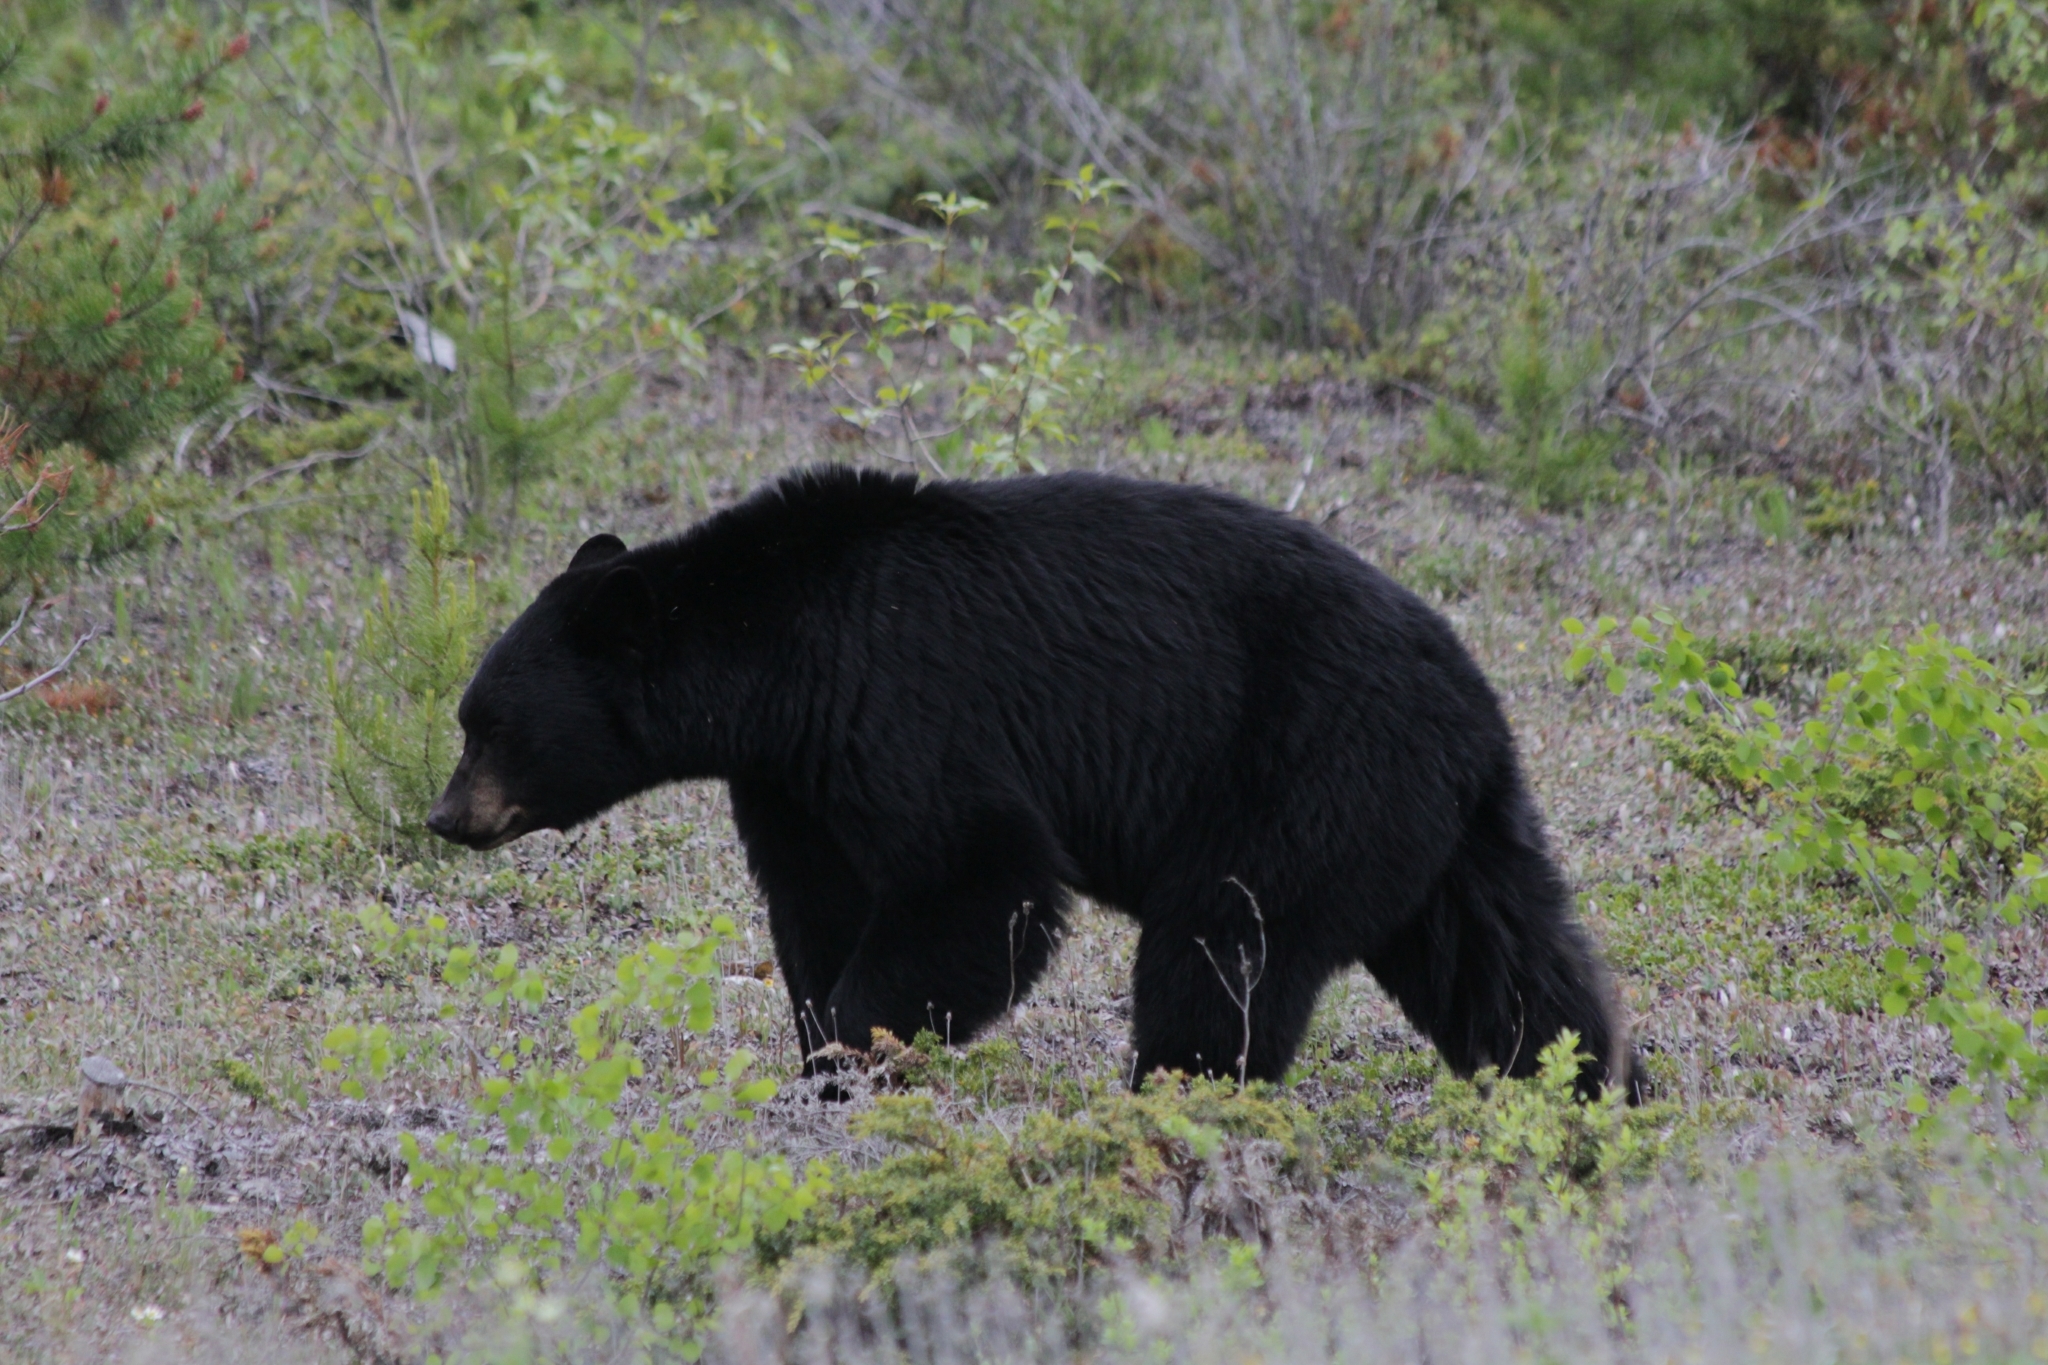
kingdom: Animalia
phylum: Chordata
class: Mammalia
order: Carnivora
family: Ursidae
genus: Ursus
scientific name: Ursus americanus
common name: American black bear
